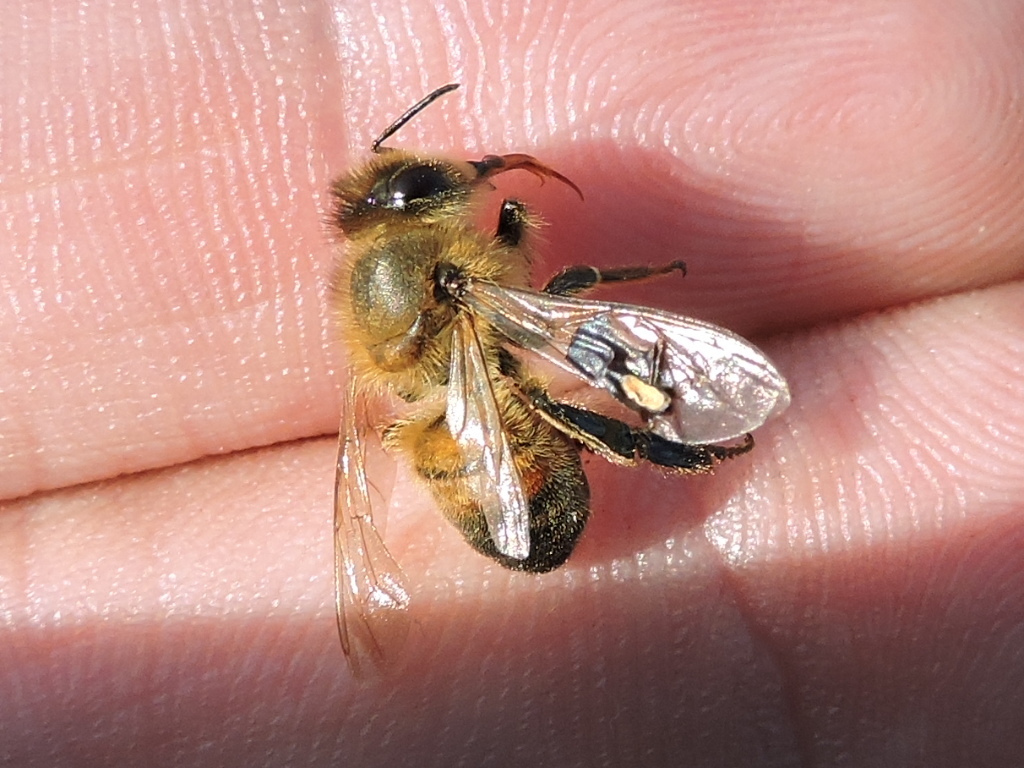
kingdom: Animalia
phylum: Arthropoda
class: Insecta
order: Hymenoptera
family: Apidae
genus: Apis
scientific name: Apis mellifera
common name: Honey bee
